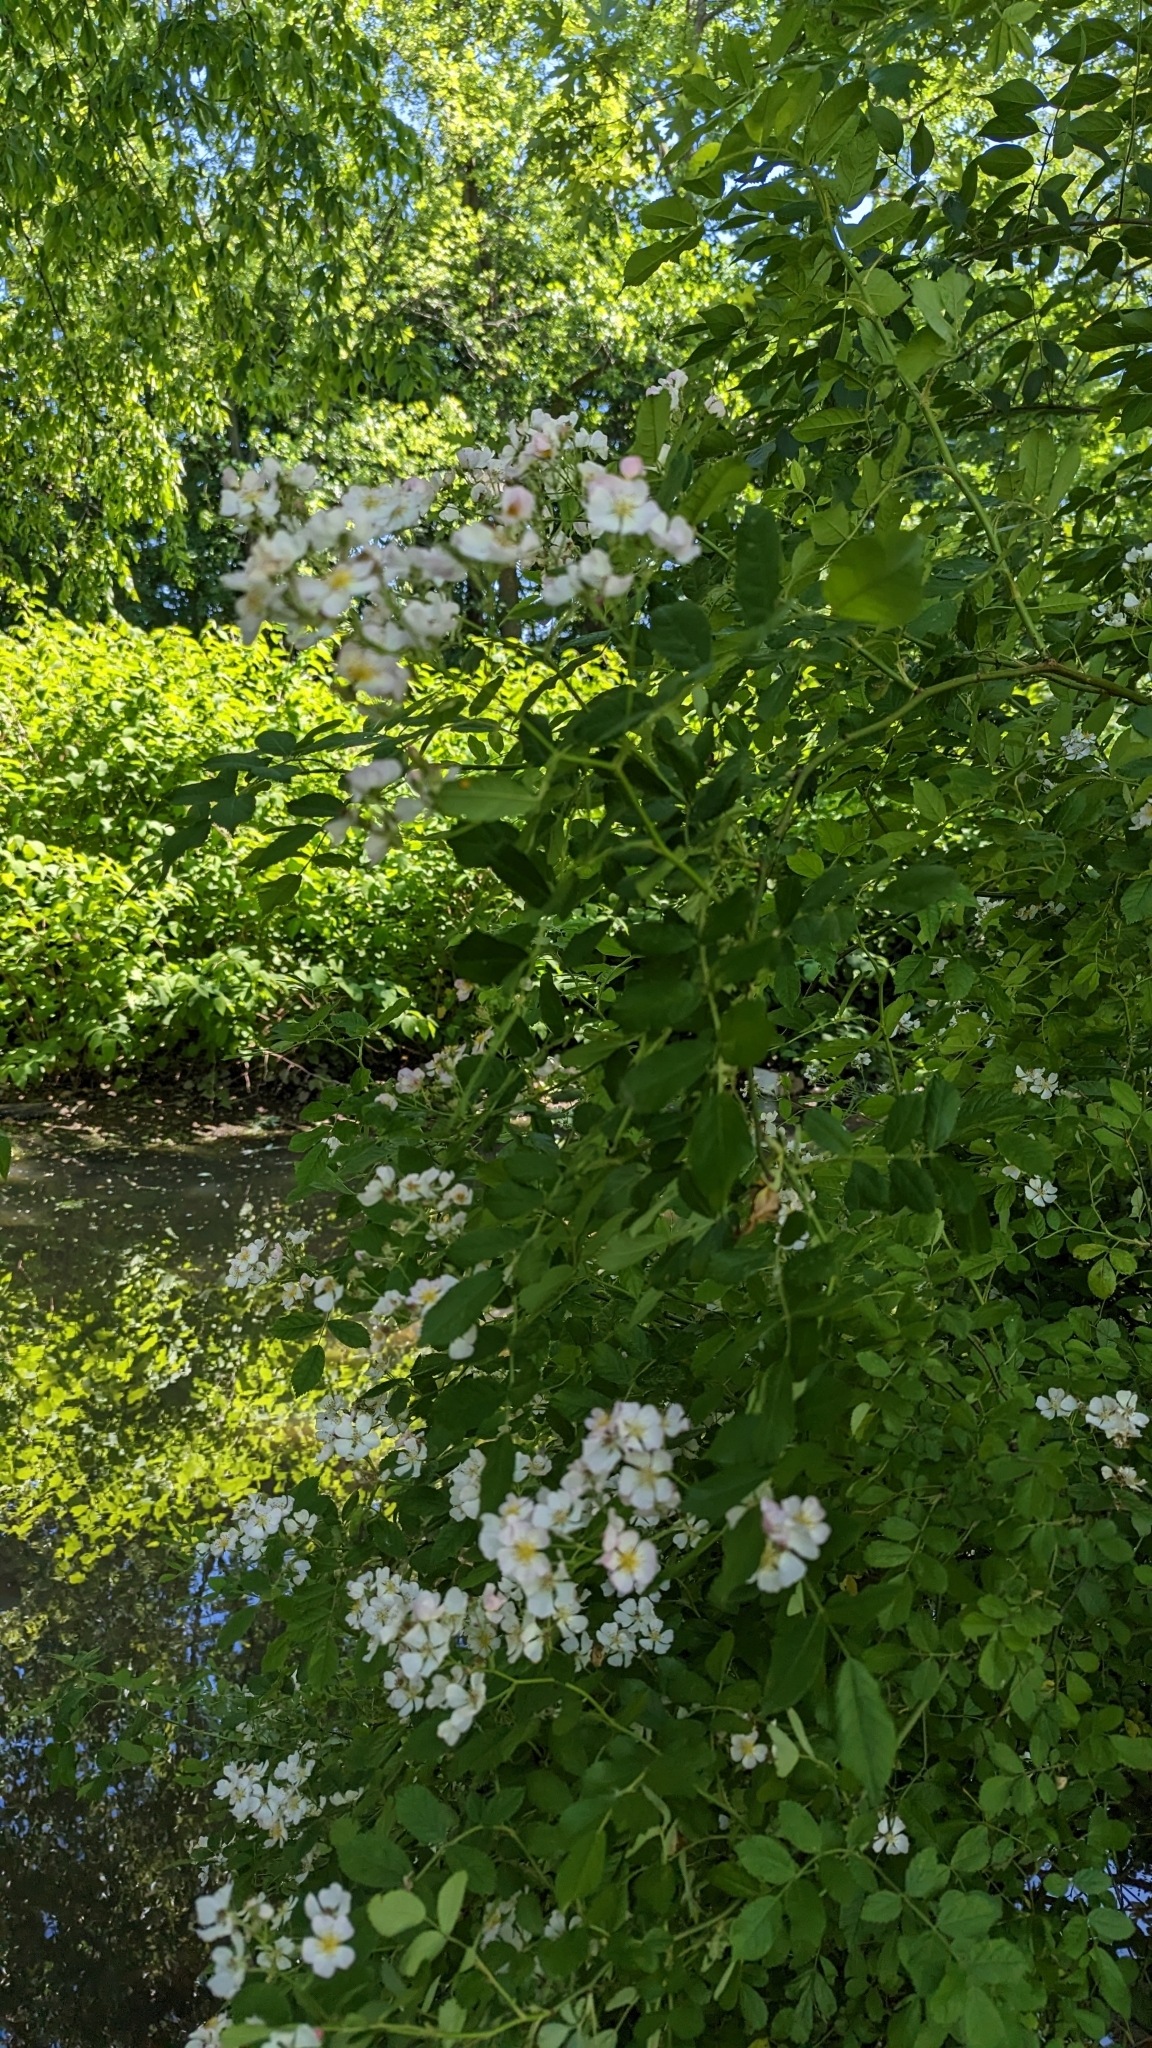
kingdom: Plantae
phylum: Tracheophyta
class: Magnoliopsida
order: Rosales
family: Rosaceae
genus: Rosa
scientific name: Rosa multiflora
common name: Multiflora rose
